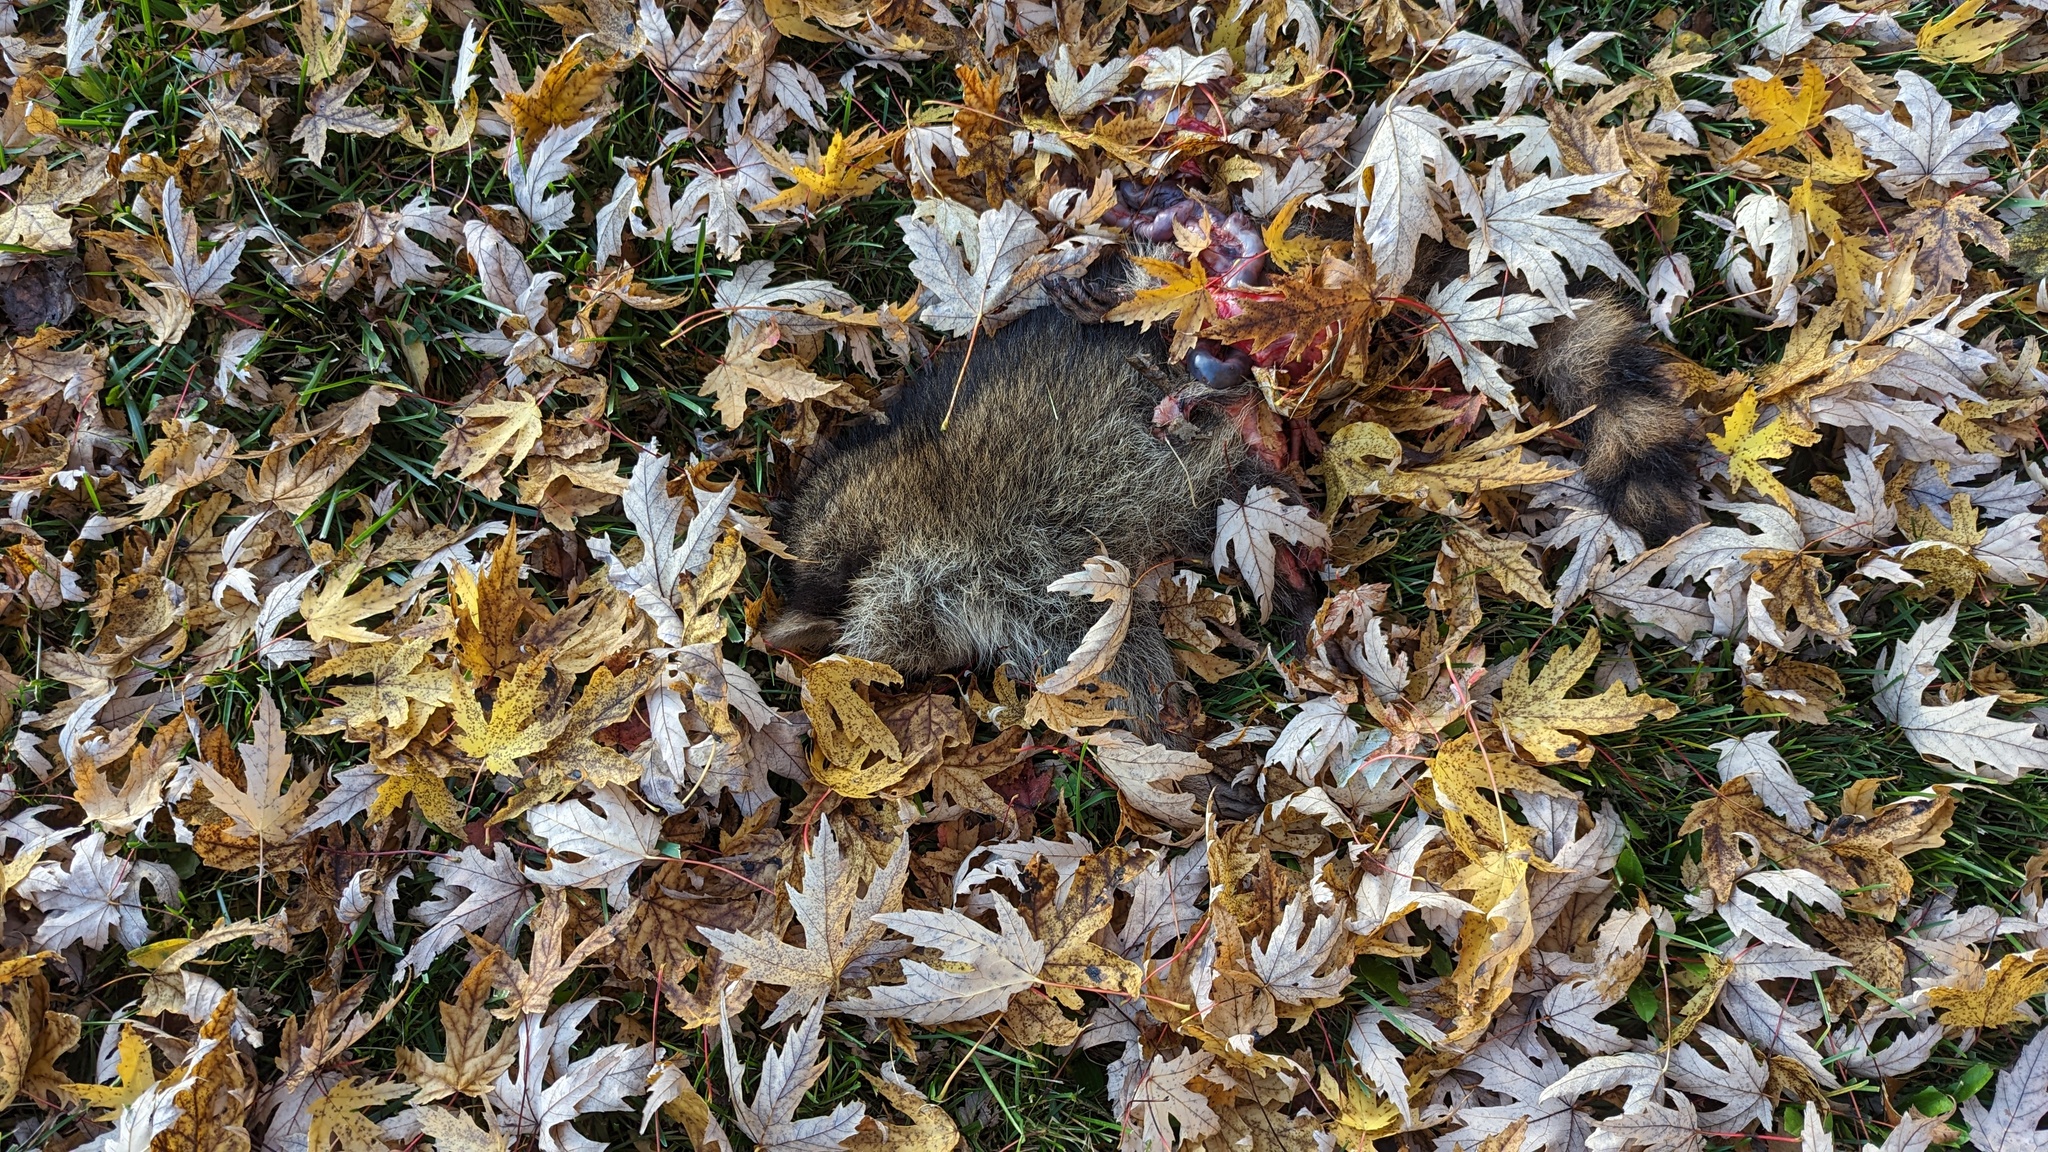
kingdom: Animalia
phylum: Chordata
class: Mammalia
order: Carnivora
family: Procyonidae
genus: Procyon
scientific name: Procyon lotor
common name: Raccoon
